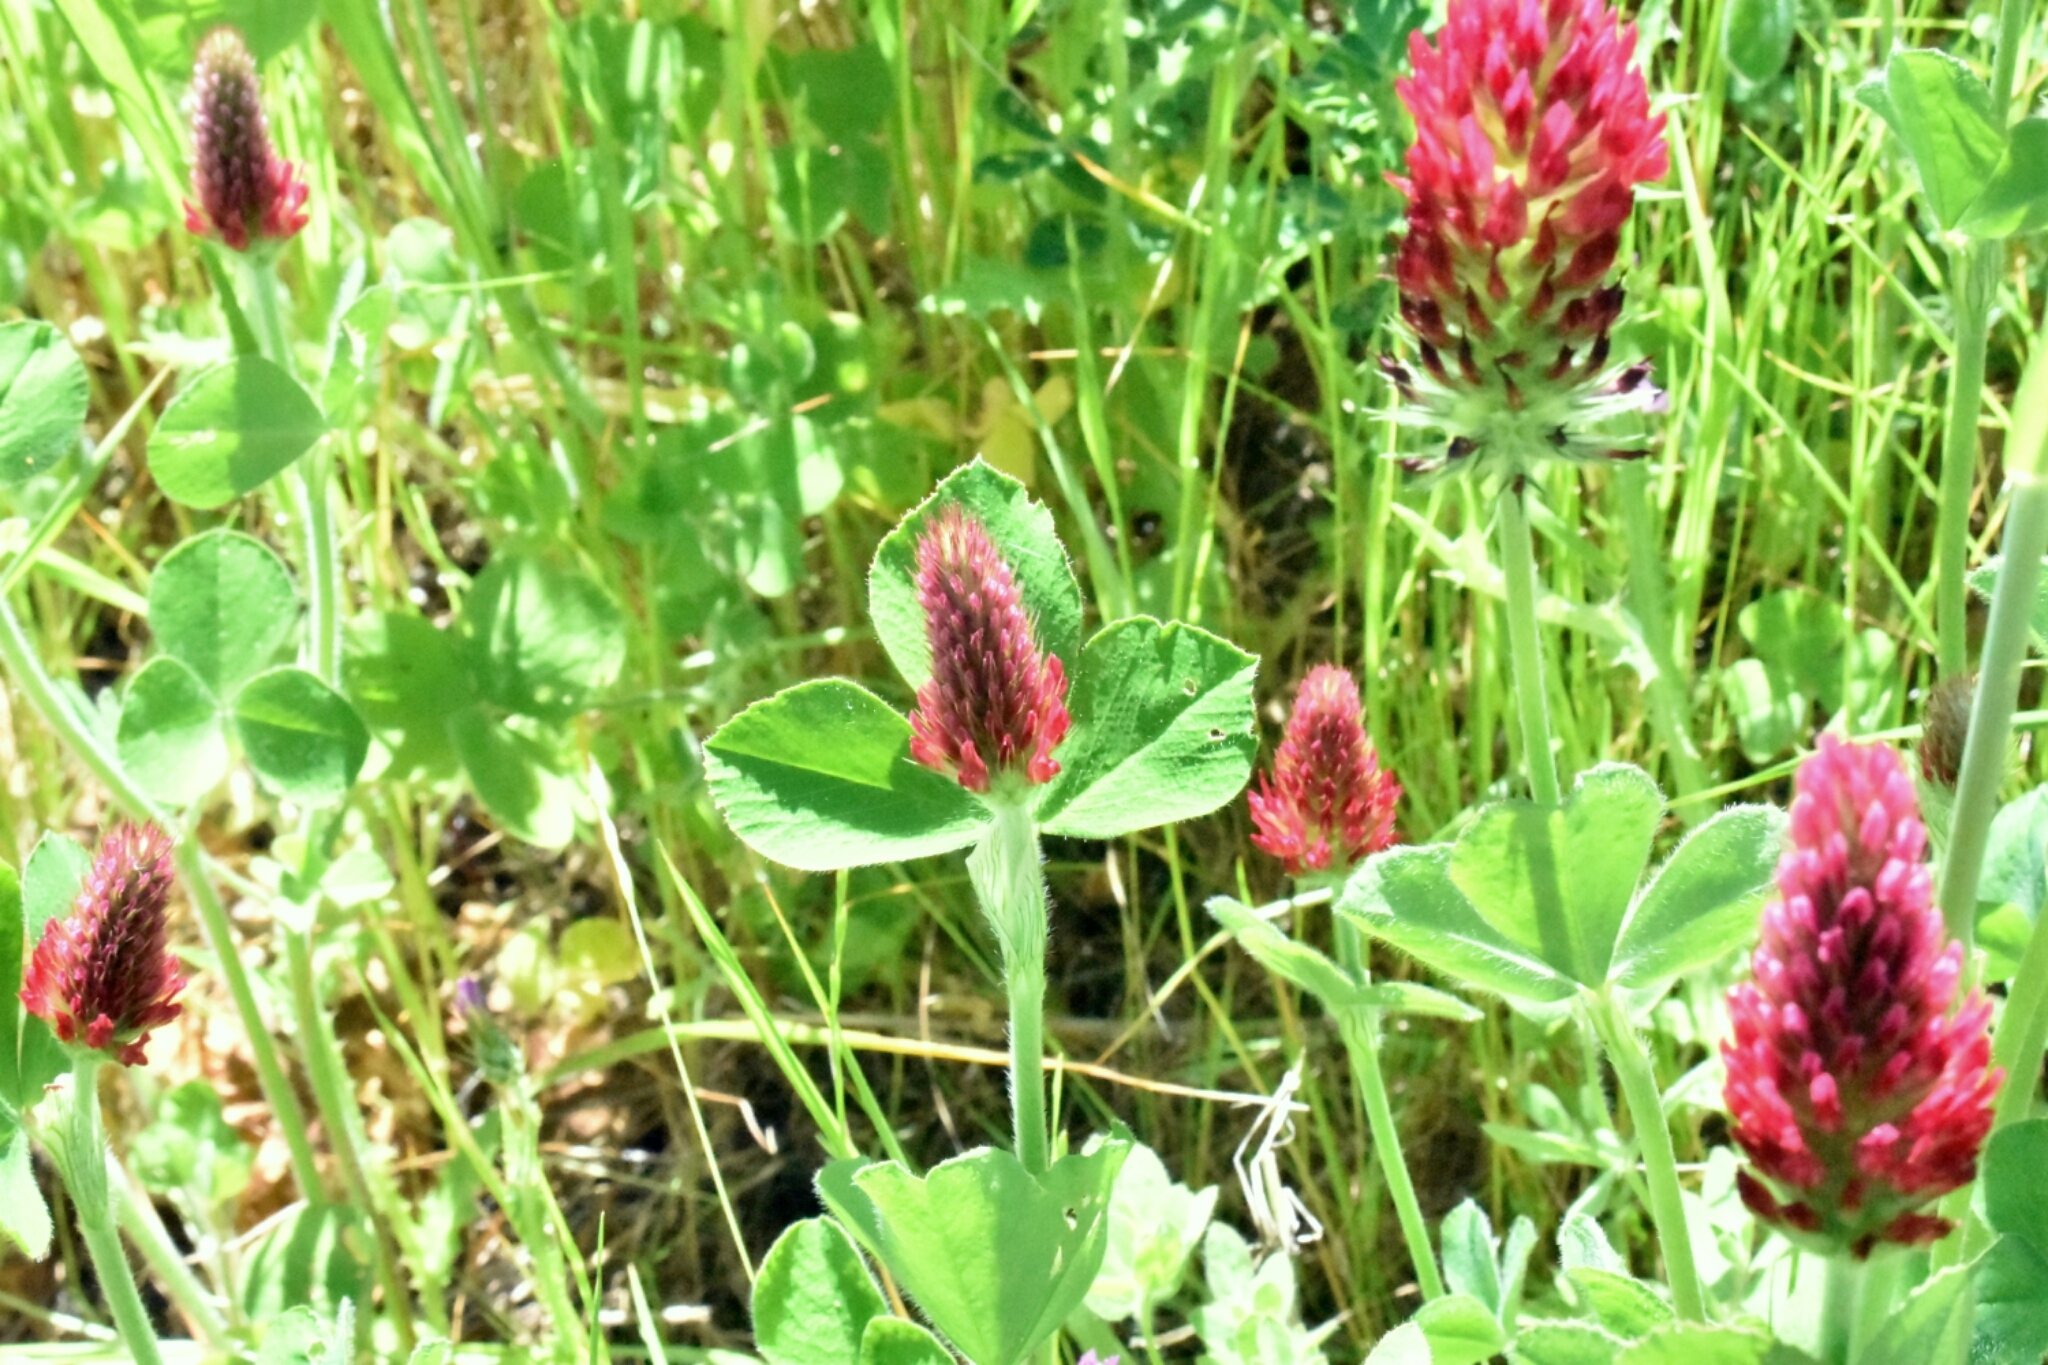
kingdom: Plantae
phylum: Tracheophyta
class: Magnoliopsida
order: Fabales
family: Fabaceae
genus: Trifolium
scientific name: Trifolium incarnatum
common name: Crimson clover
